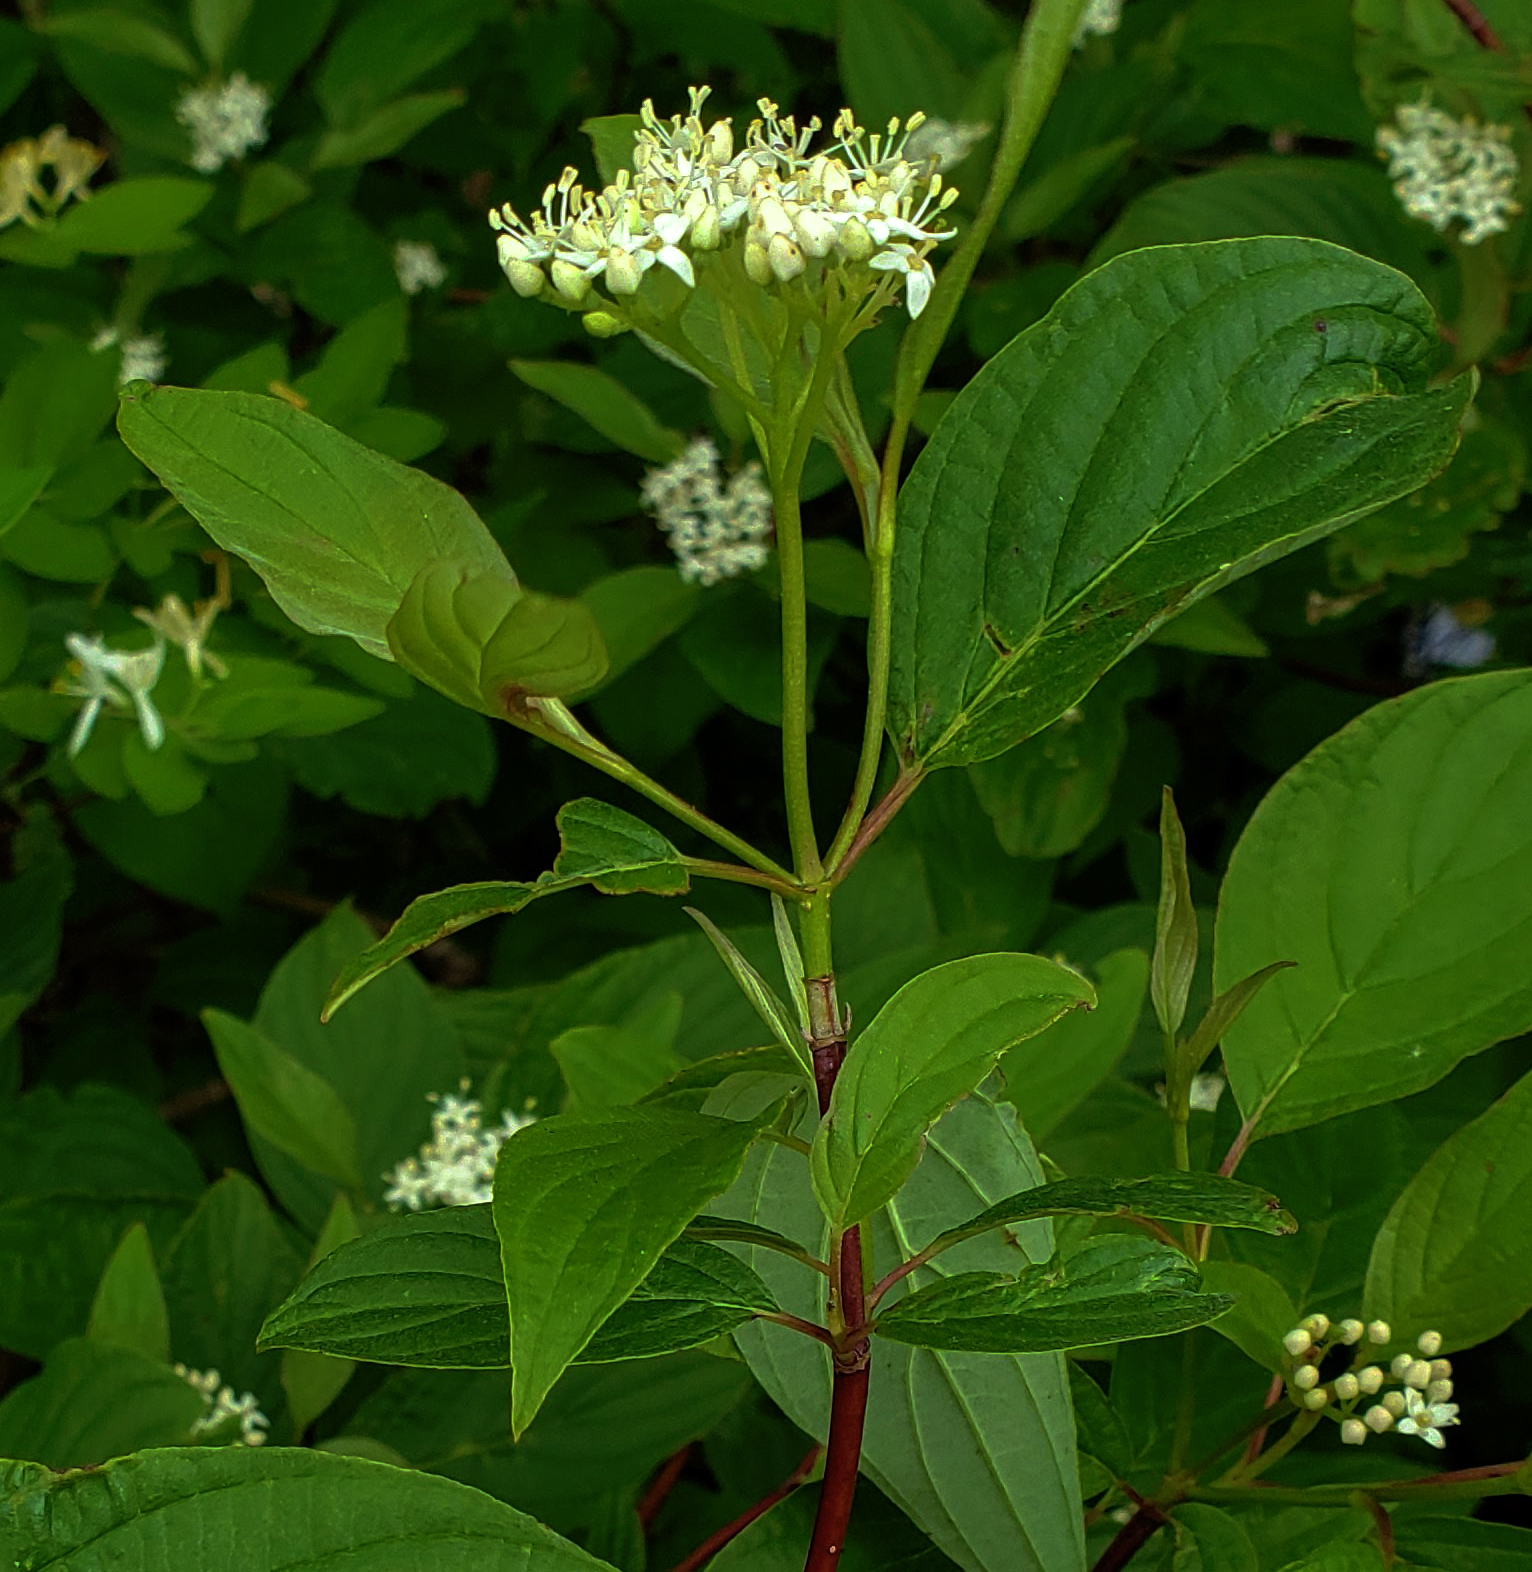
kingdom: Plantae
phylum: Tracheophyta
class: Magnoliopsida
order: Cornales
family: Cornaceae
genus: Cornus
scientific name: Cornus sericea
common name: Red-osier dogwood
